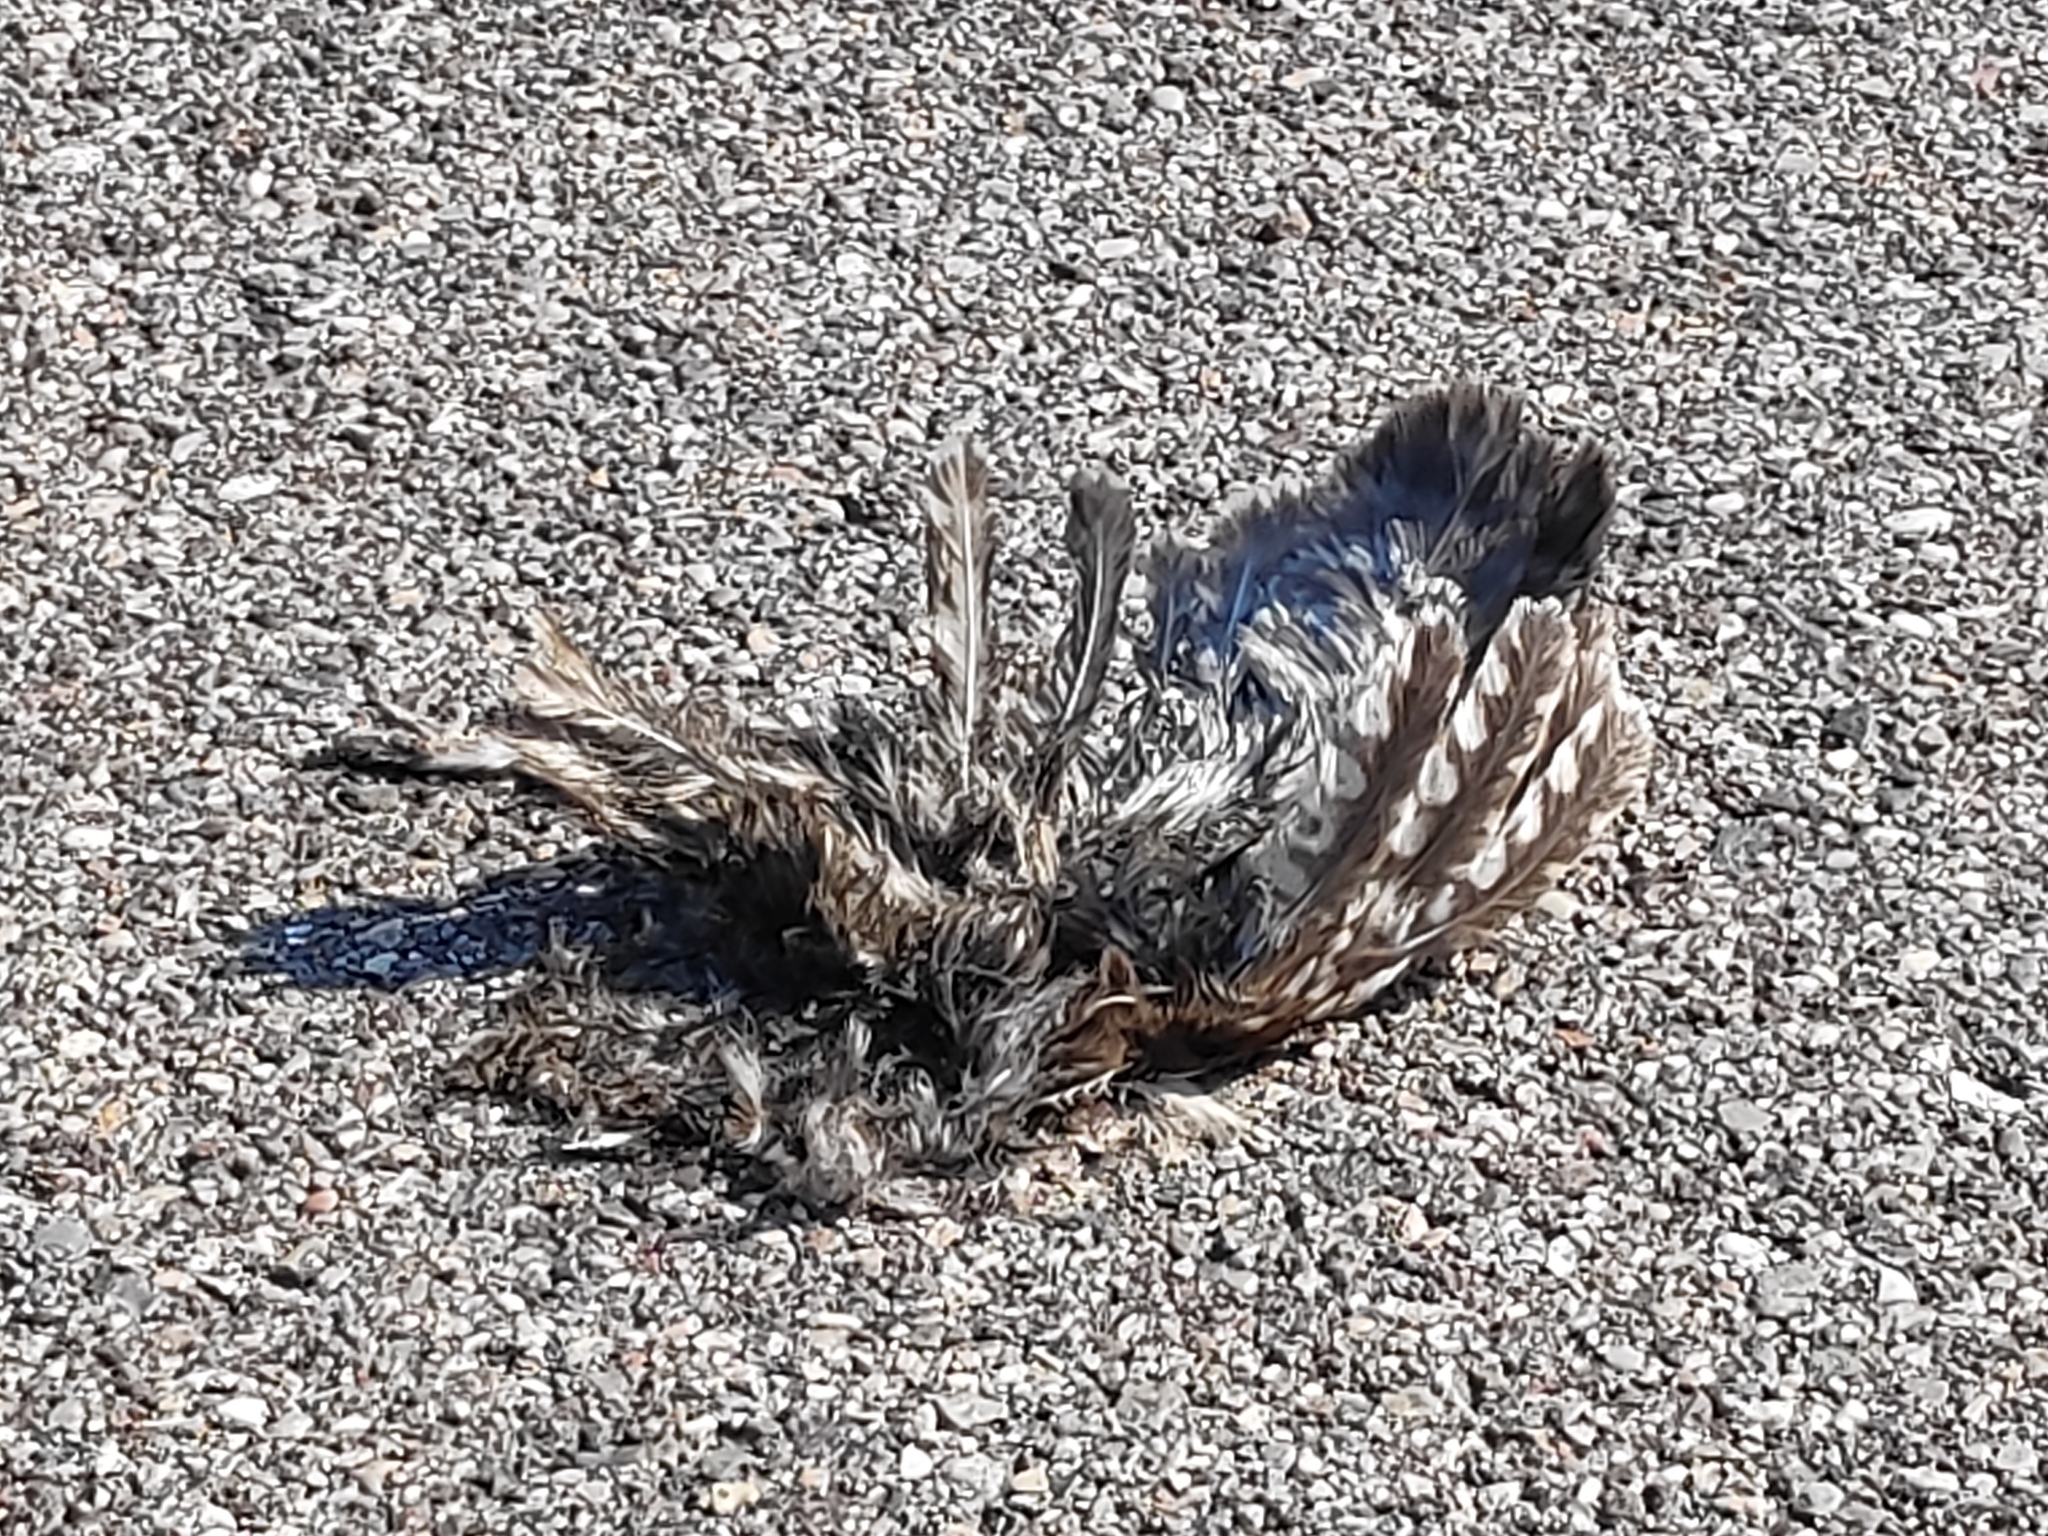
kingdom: Animalia
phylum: Chordata
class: Aves
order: Strigiformes
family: Strigidae
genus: Athene
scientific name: Athene noctua
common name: Little owl
